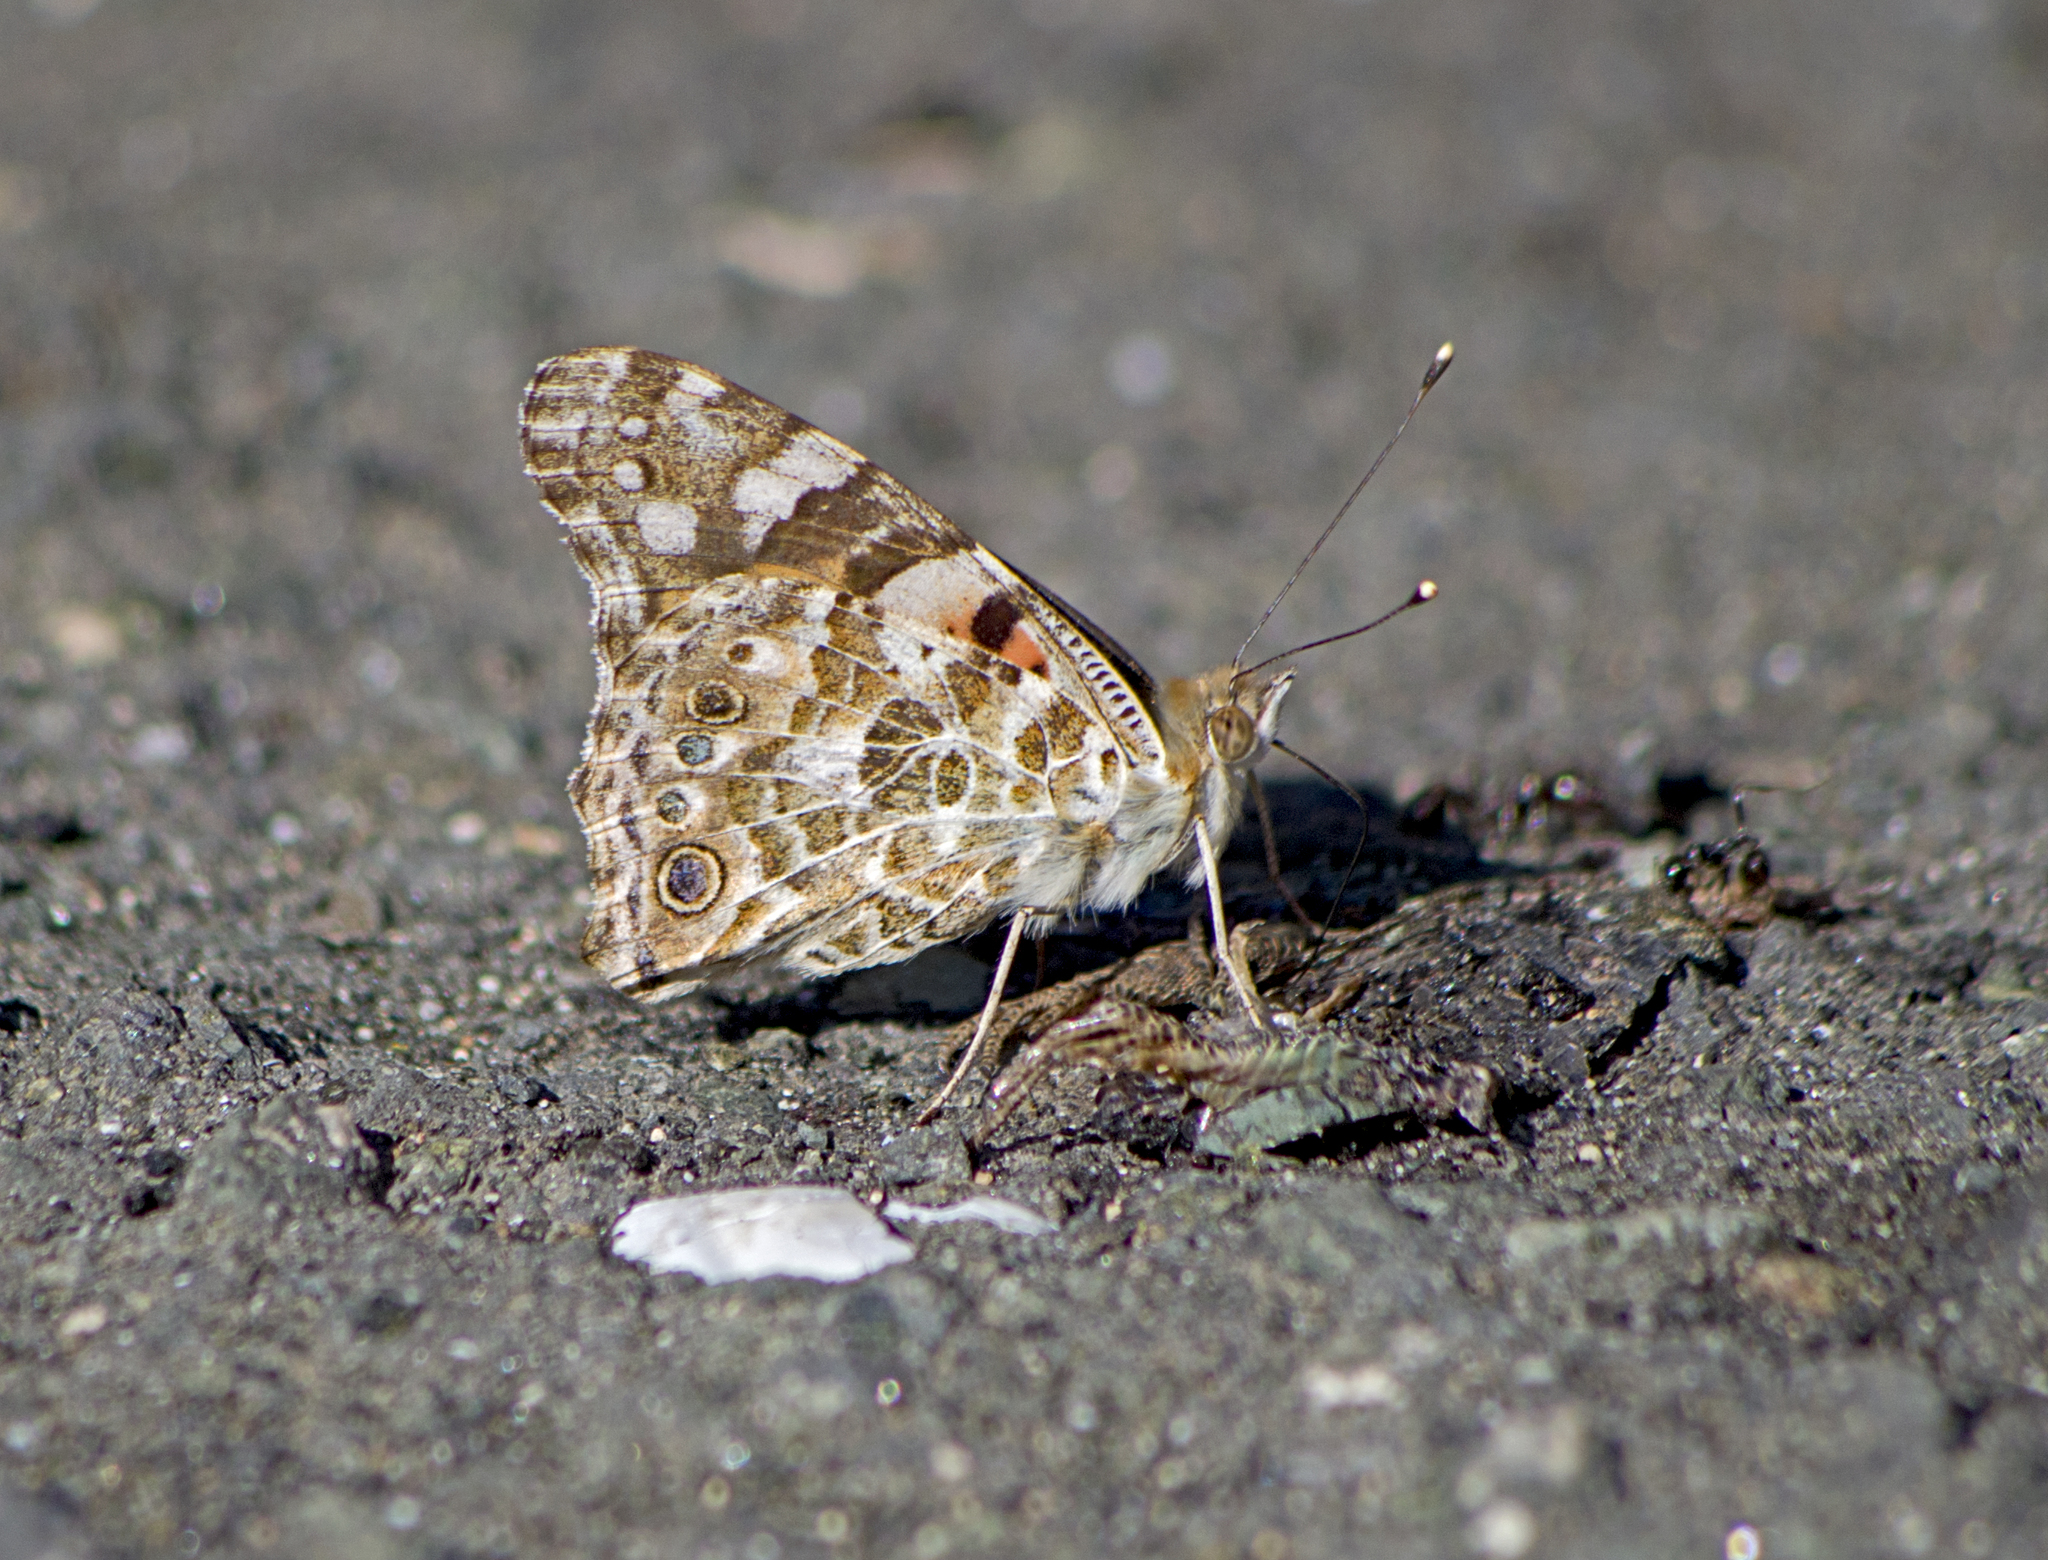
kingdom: Animalia
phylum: Arthropoda
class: Insecta
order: Lepidoptera
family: Nymphalidae
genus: Vanessa
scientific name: Vanessa cardui
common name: Painted lady
